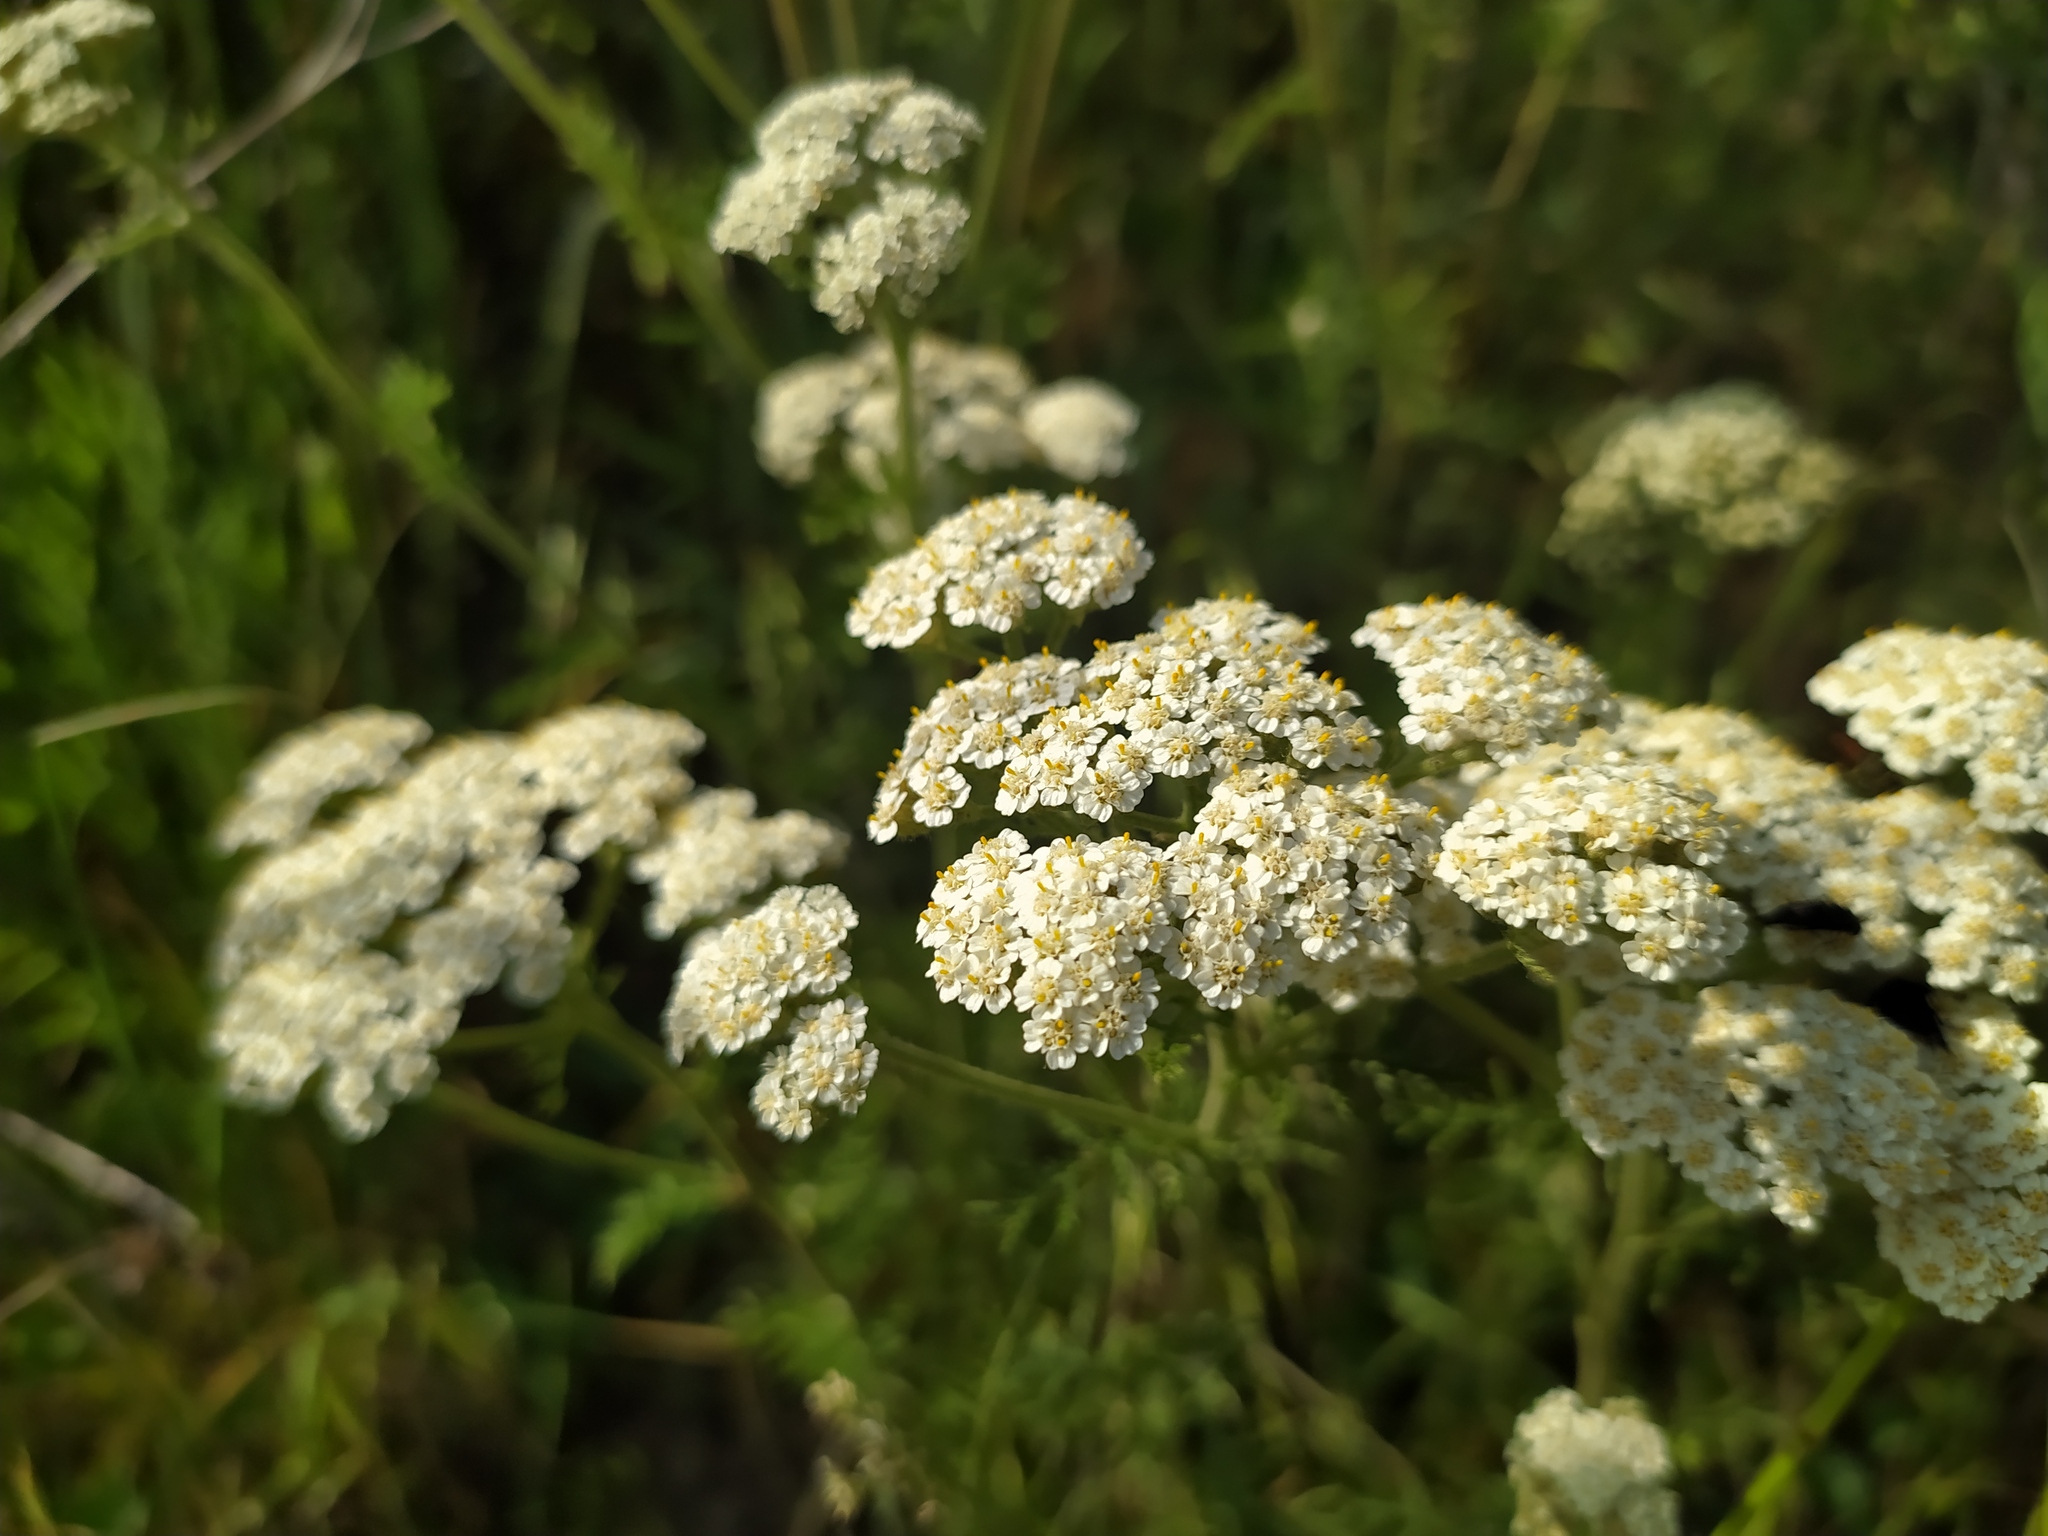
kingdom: Plantae
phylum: Tracheophyta
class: Magnoliopsida
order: Asterales
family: Asteraceae
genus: Achillea
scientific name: Achillea nobilis
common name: Noble yarrow
